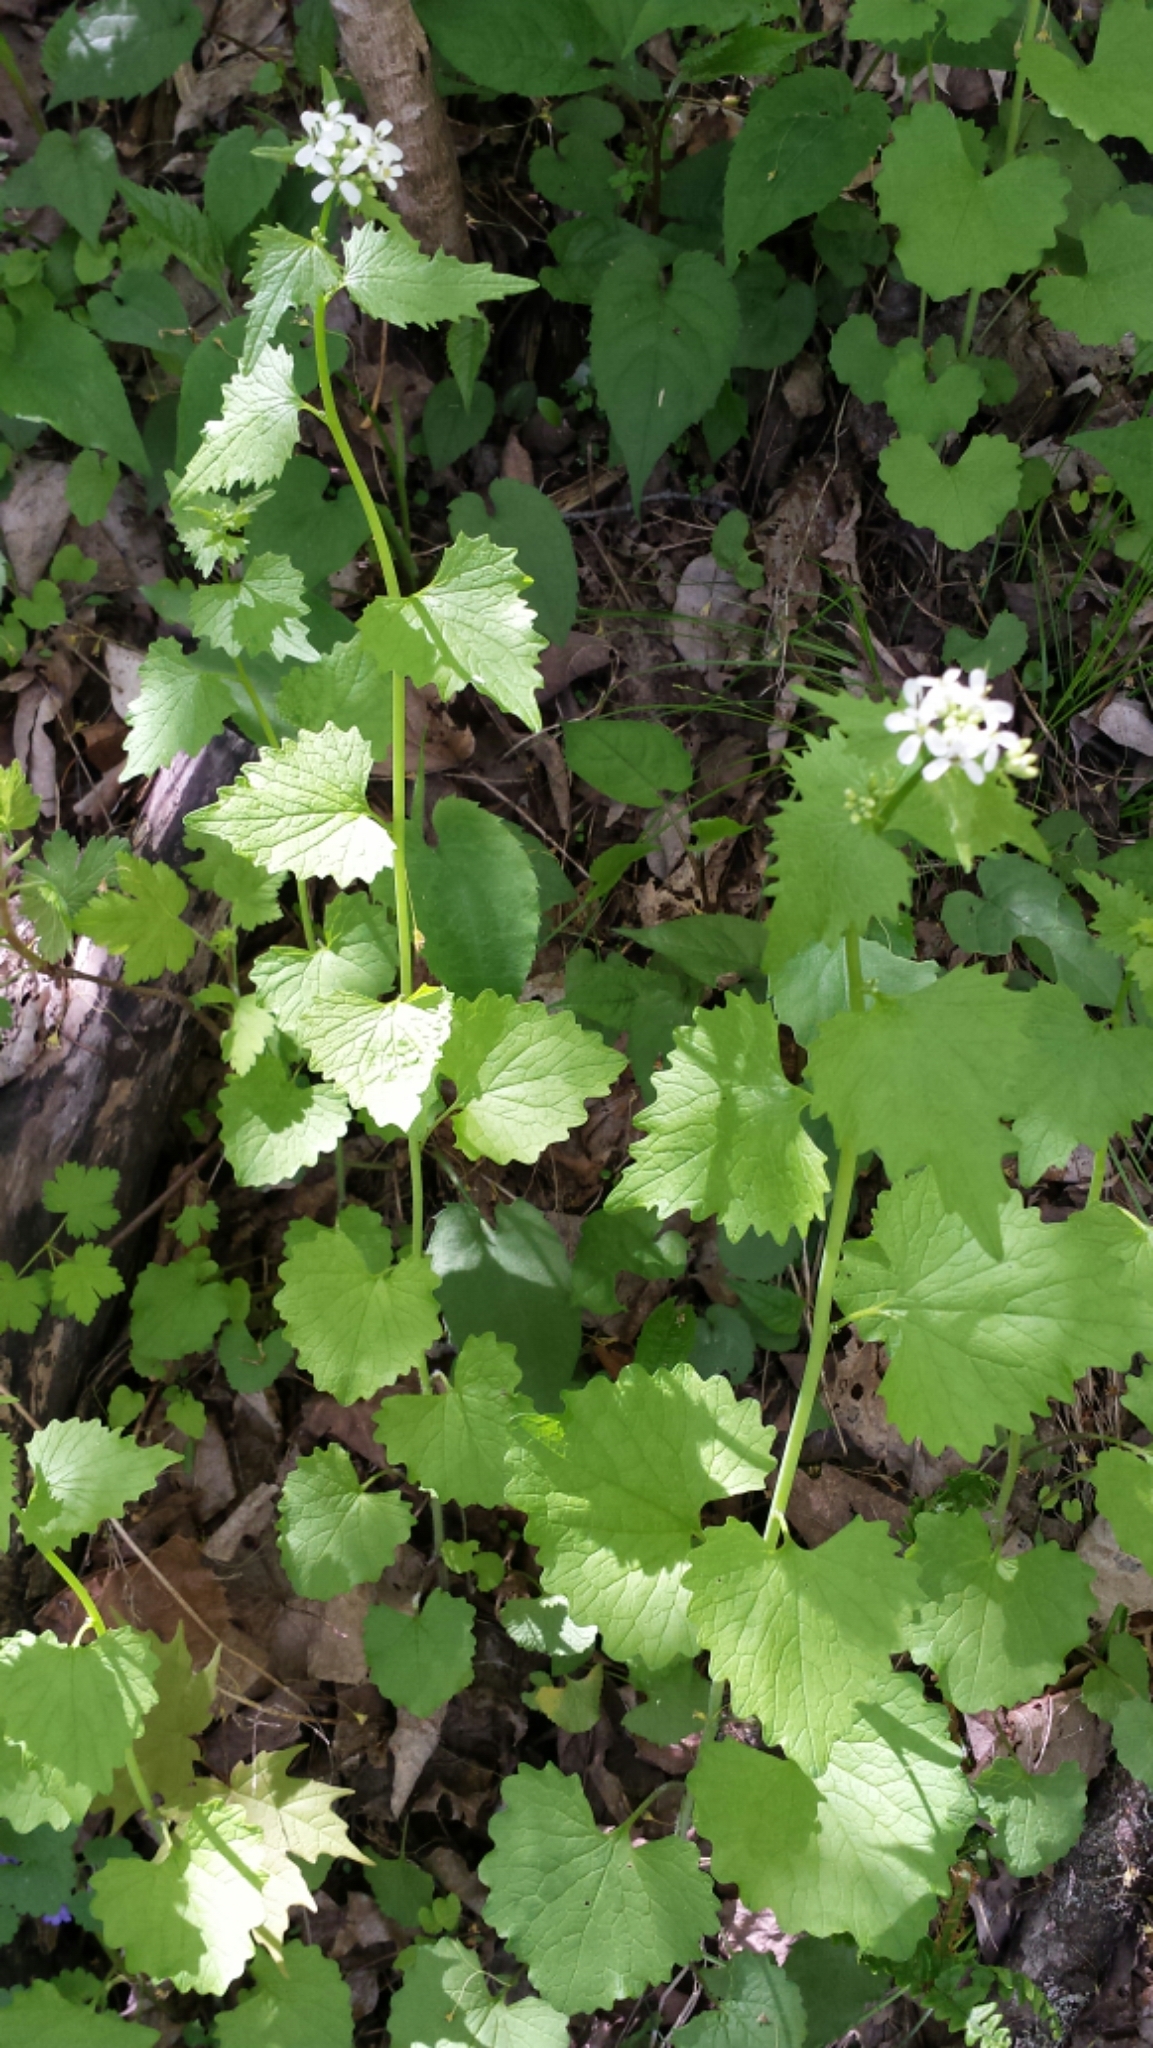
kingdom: Plantae
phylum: Tracheophyta
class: Magnoliopsida
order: Brassicales
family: Brassicaceae
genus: Alliaria
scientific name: Alliaria petiolata
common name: Garlic mustard
